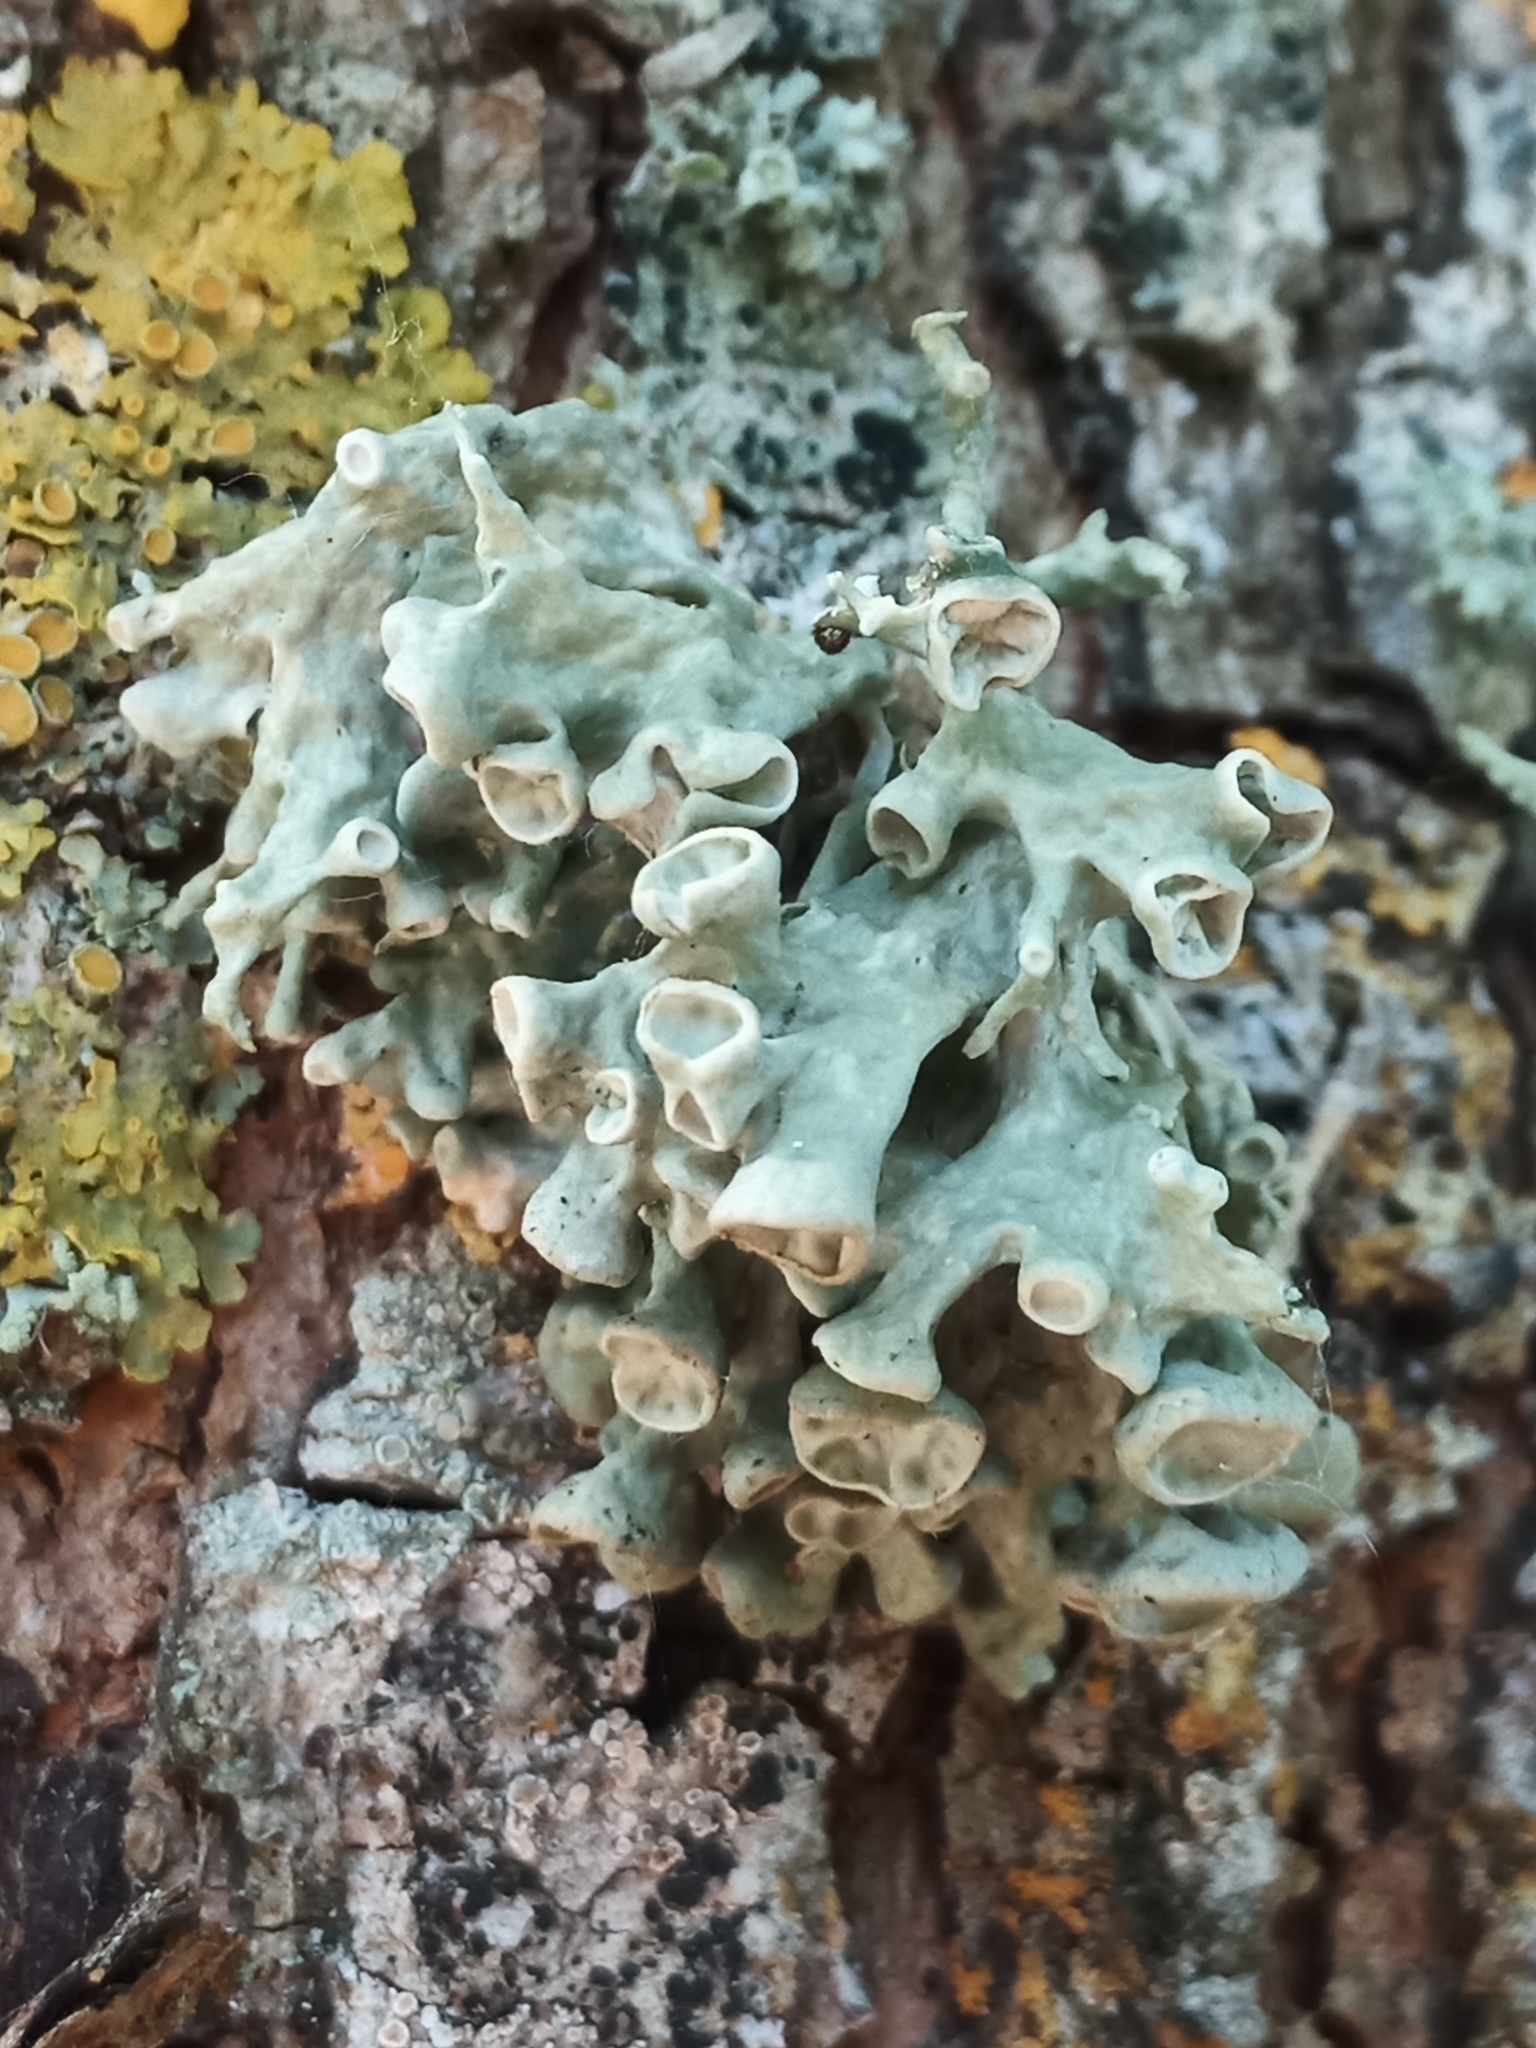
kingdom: Fungi
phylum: Ascomycota
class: Lecanoromycetes
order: Lecanorales
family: Ramalinaceae
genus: Ramalina
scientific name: Ramalina fastigiata
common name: Dotted ribbon lichen
